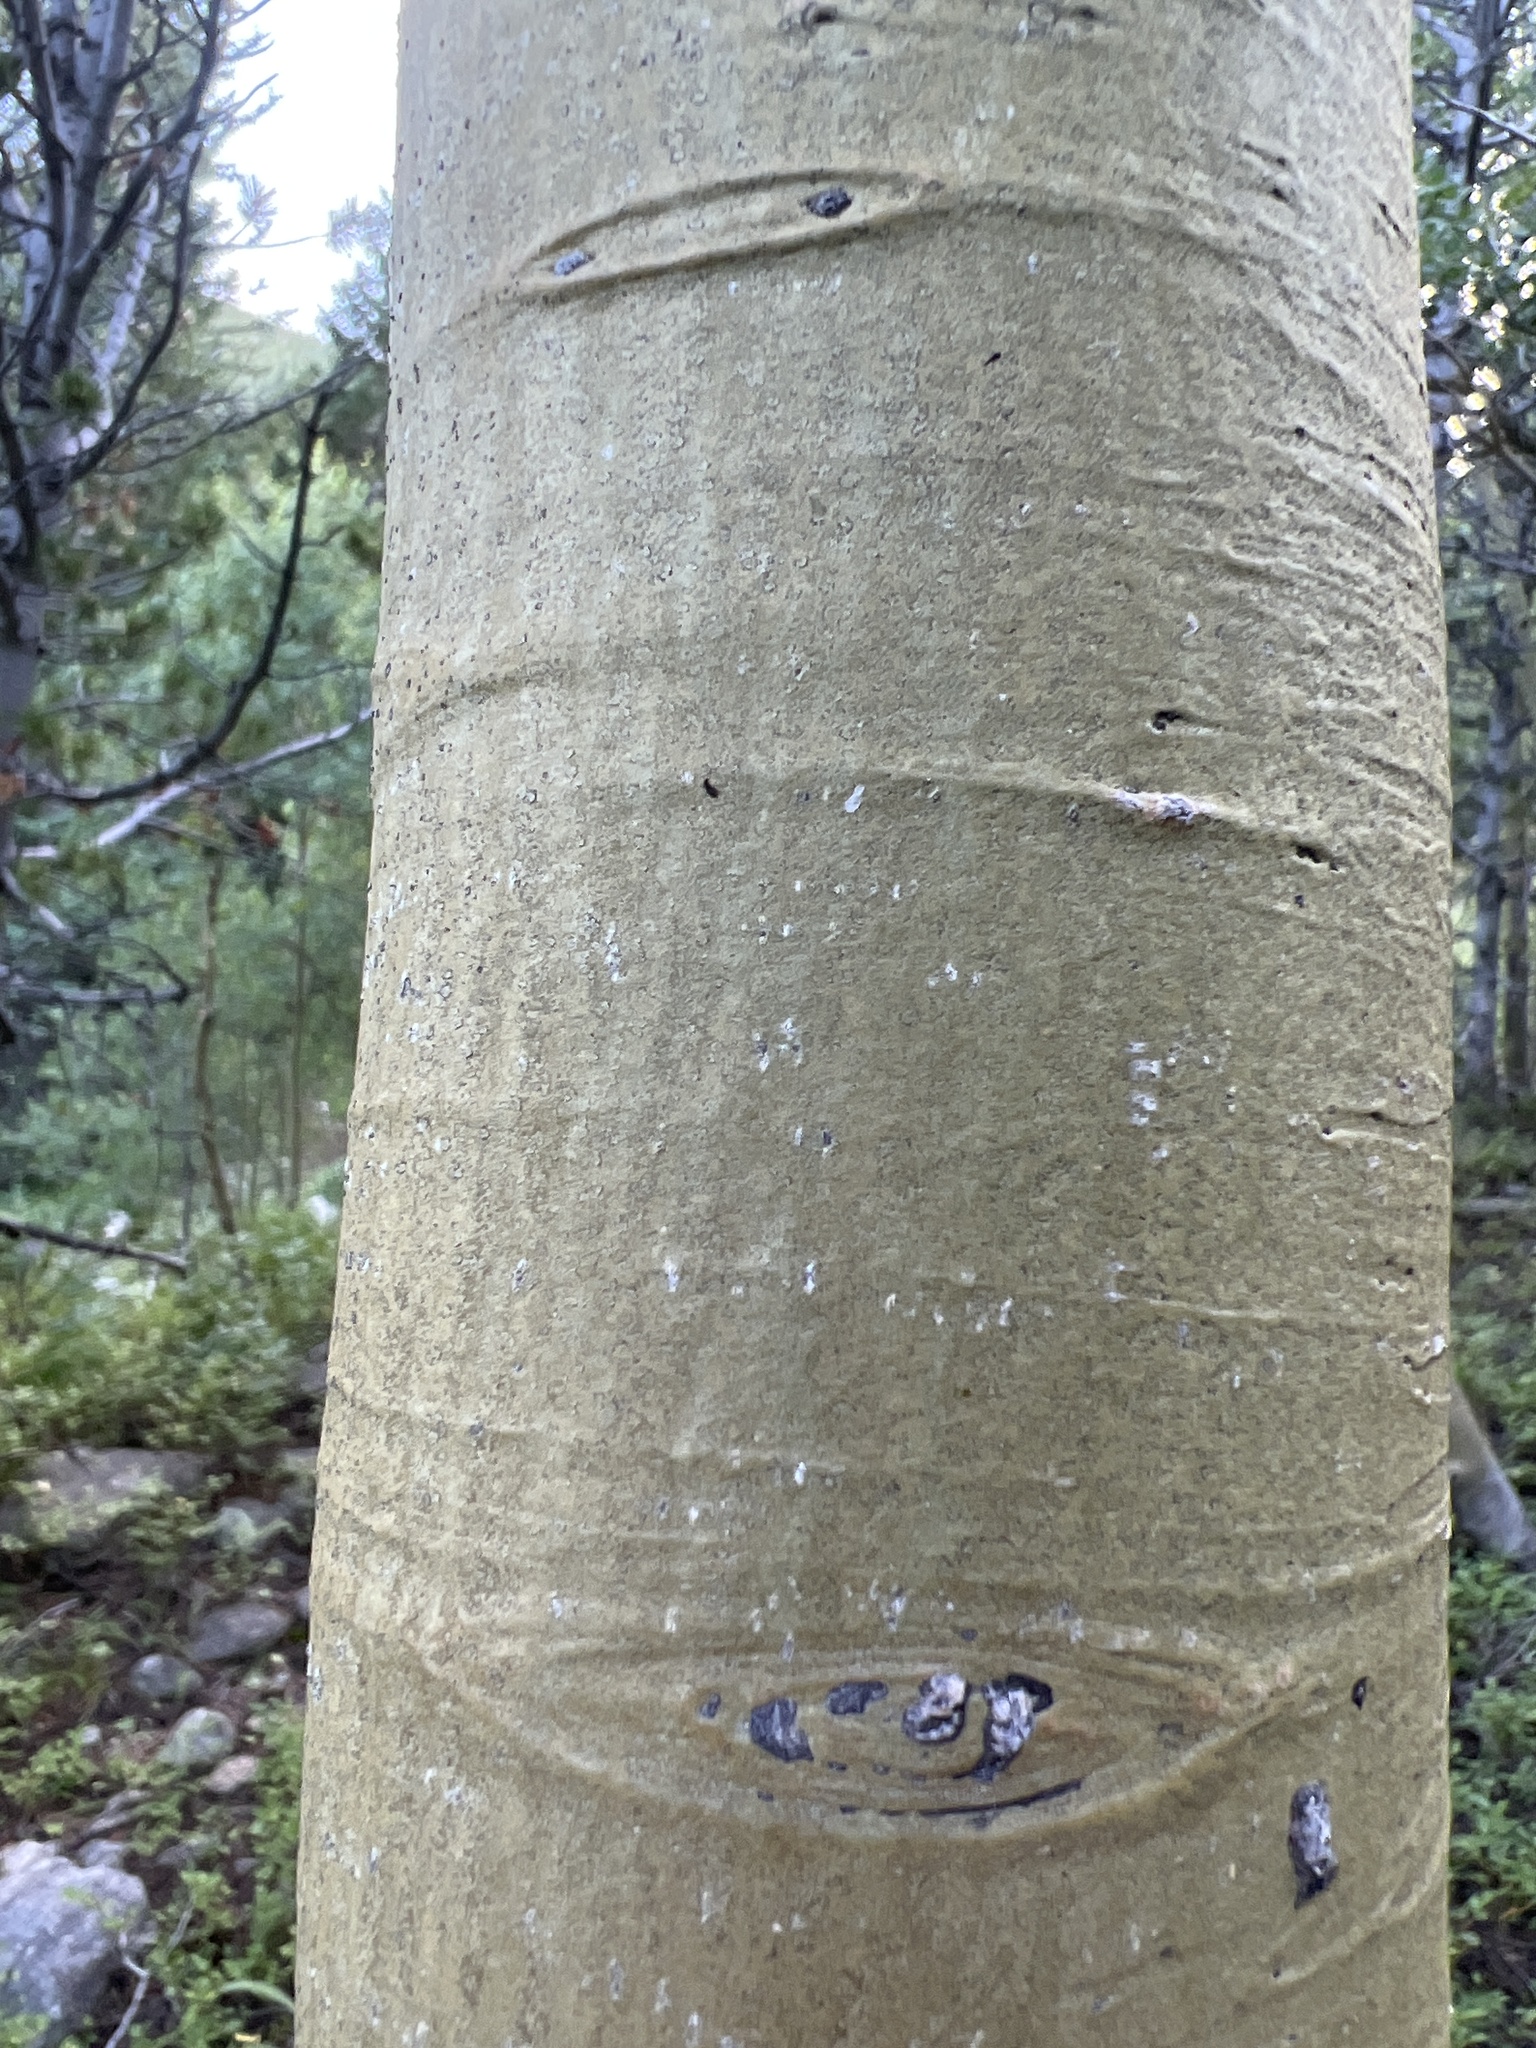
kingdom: Plantae
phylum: Tracheophyta
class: Magnoliopsida
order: Malpighiales
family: Salicaceae
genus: Populus
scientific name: Populus tremuloides
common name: Quaking aspen
